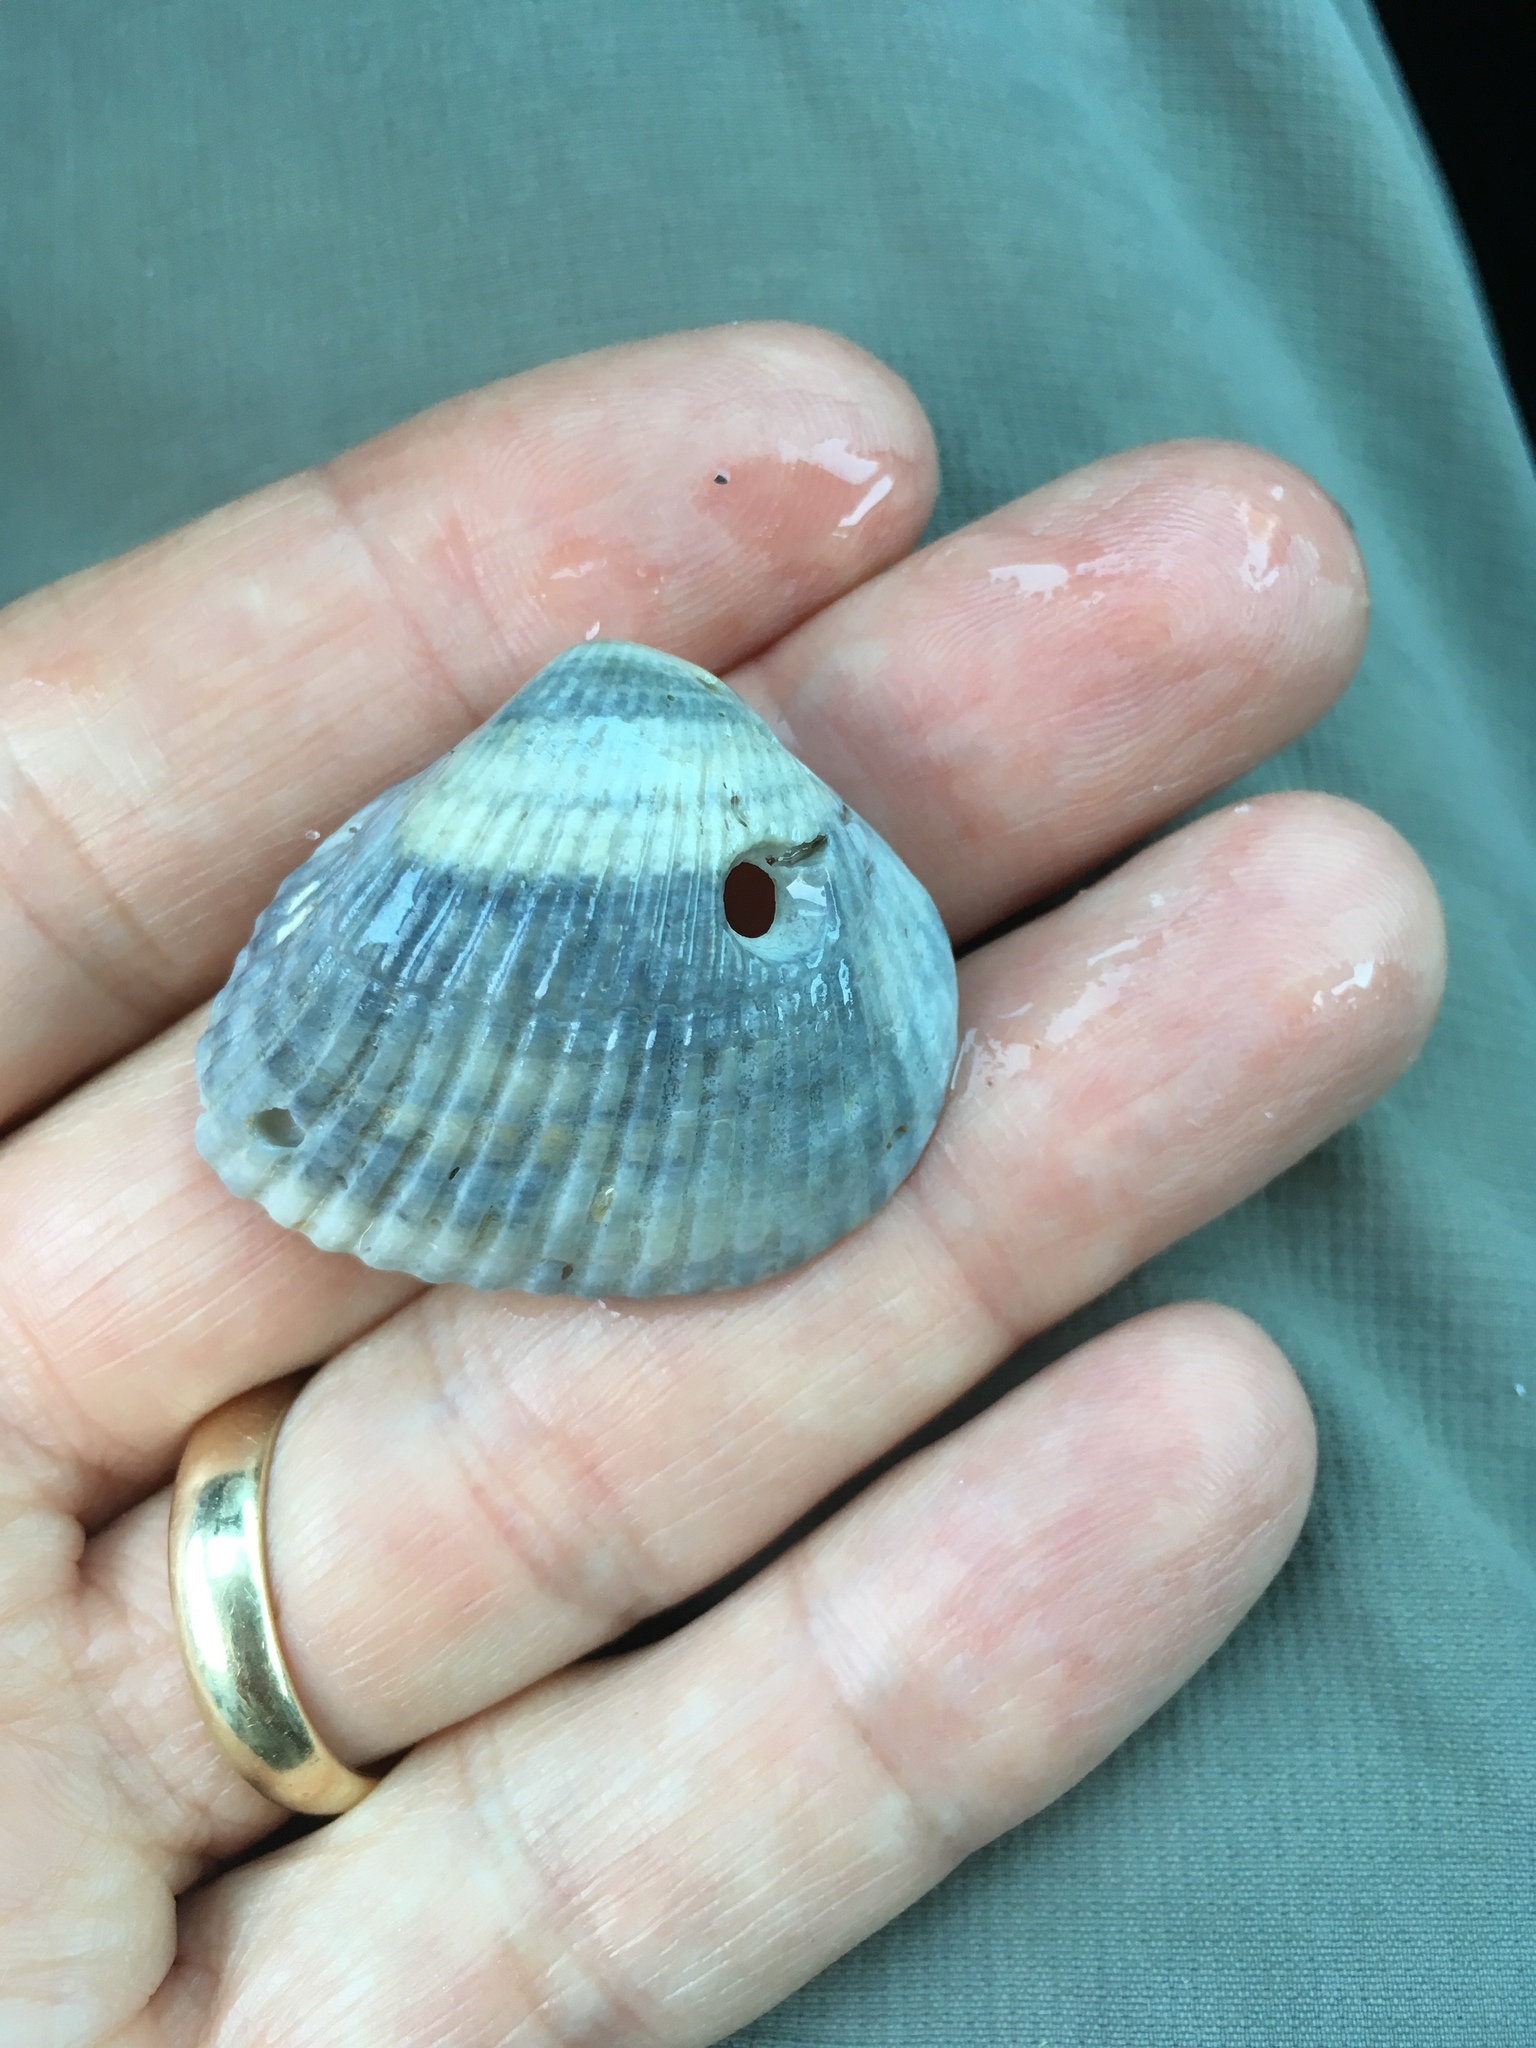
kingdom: Animalia
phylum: Mollusca
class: Bivalvia
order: Arcida
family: Noetiidae
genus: Noetia
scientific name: Noetia ponderosa
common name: Ponderous ark
